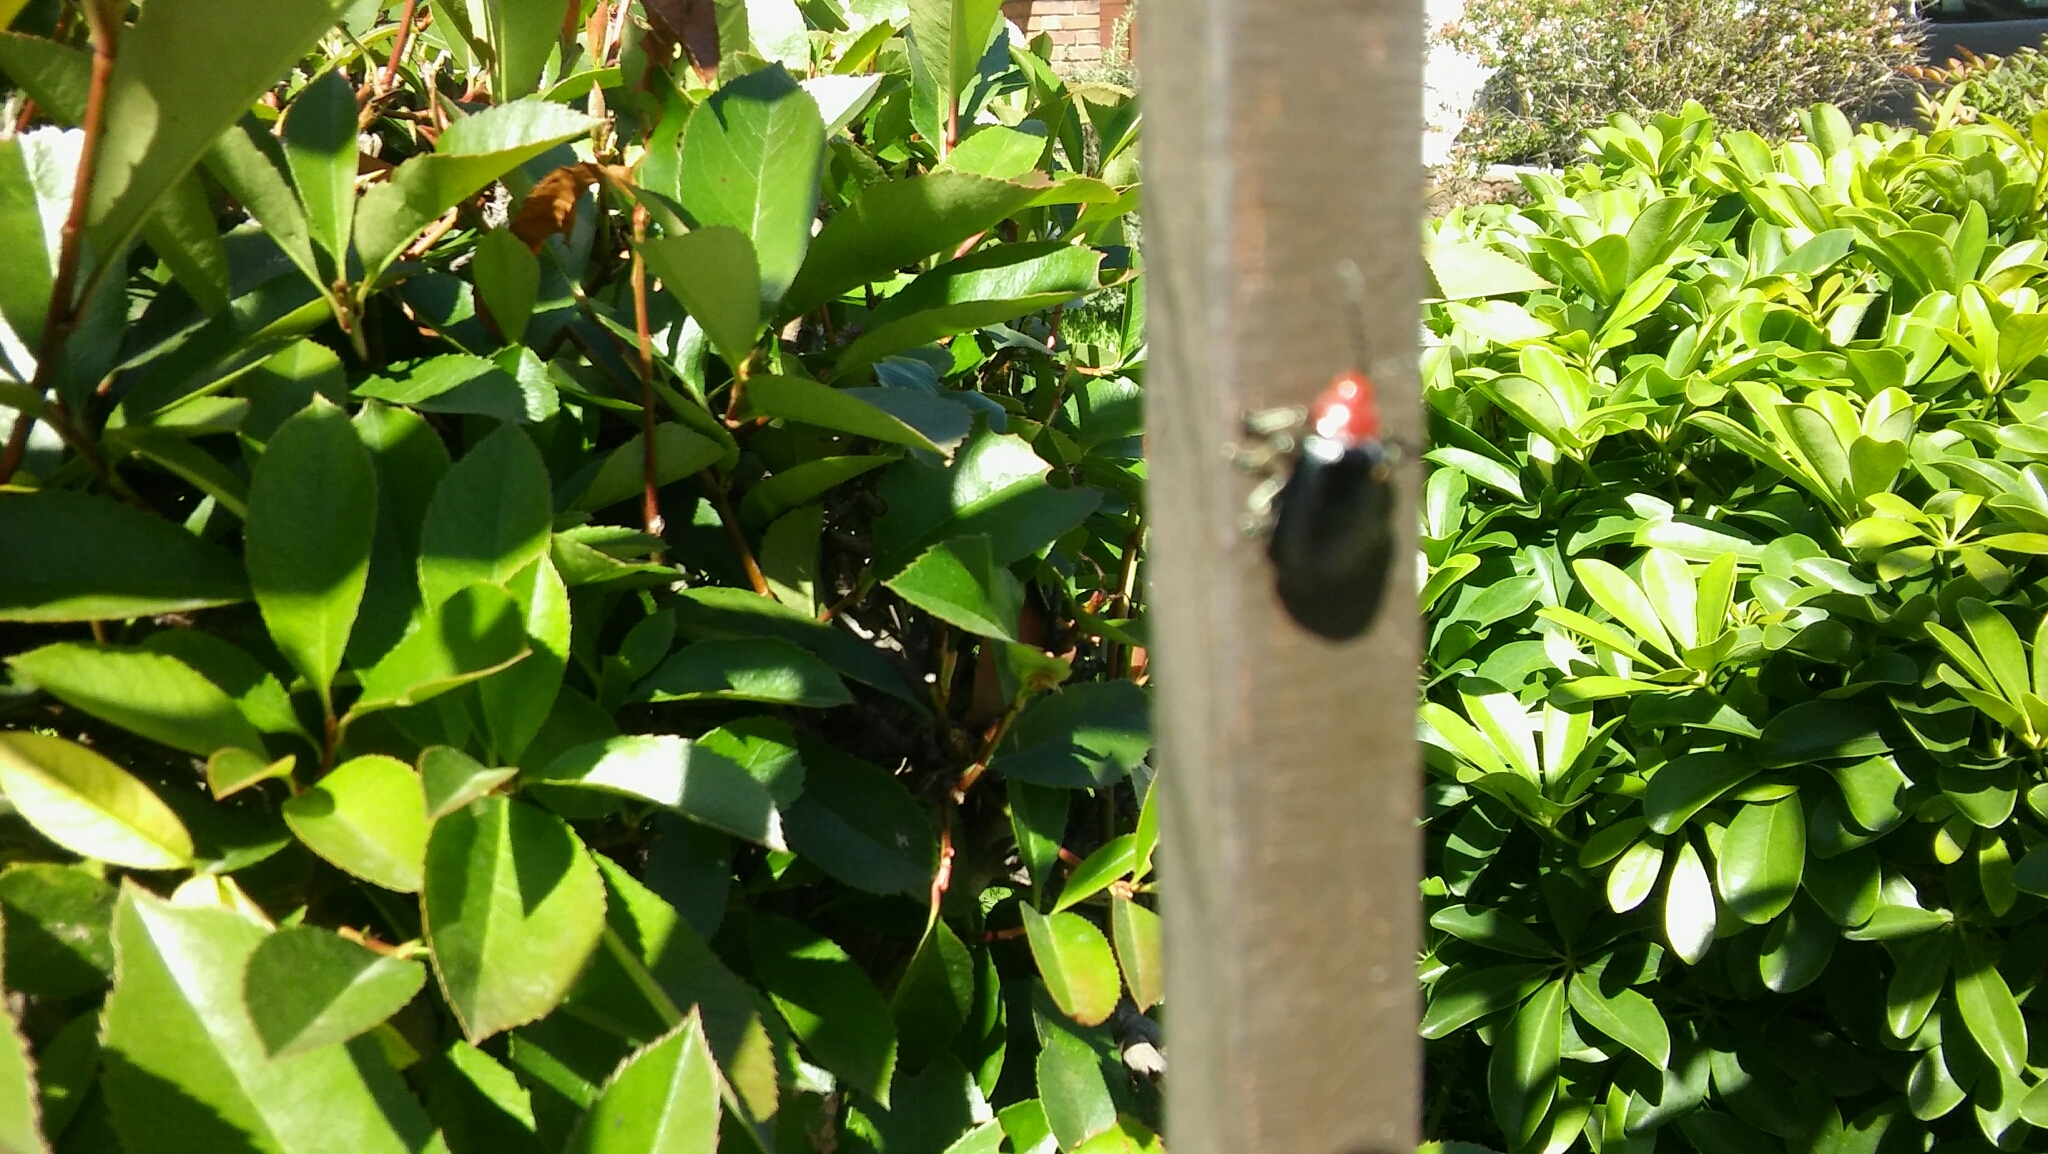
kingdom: Animalia
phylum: Arthropoda
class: Insecta
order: Coleoptera
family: Chrysomelidae
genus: Cacoscelis
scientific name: Cacoscelis
